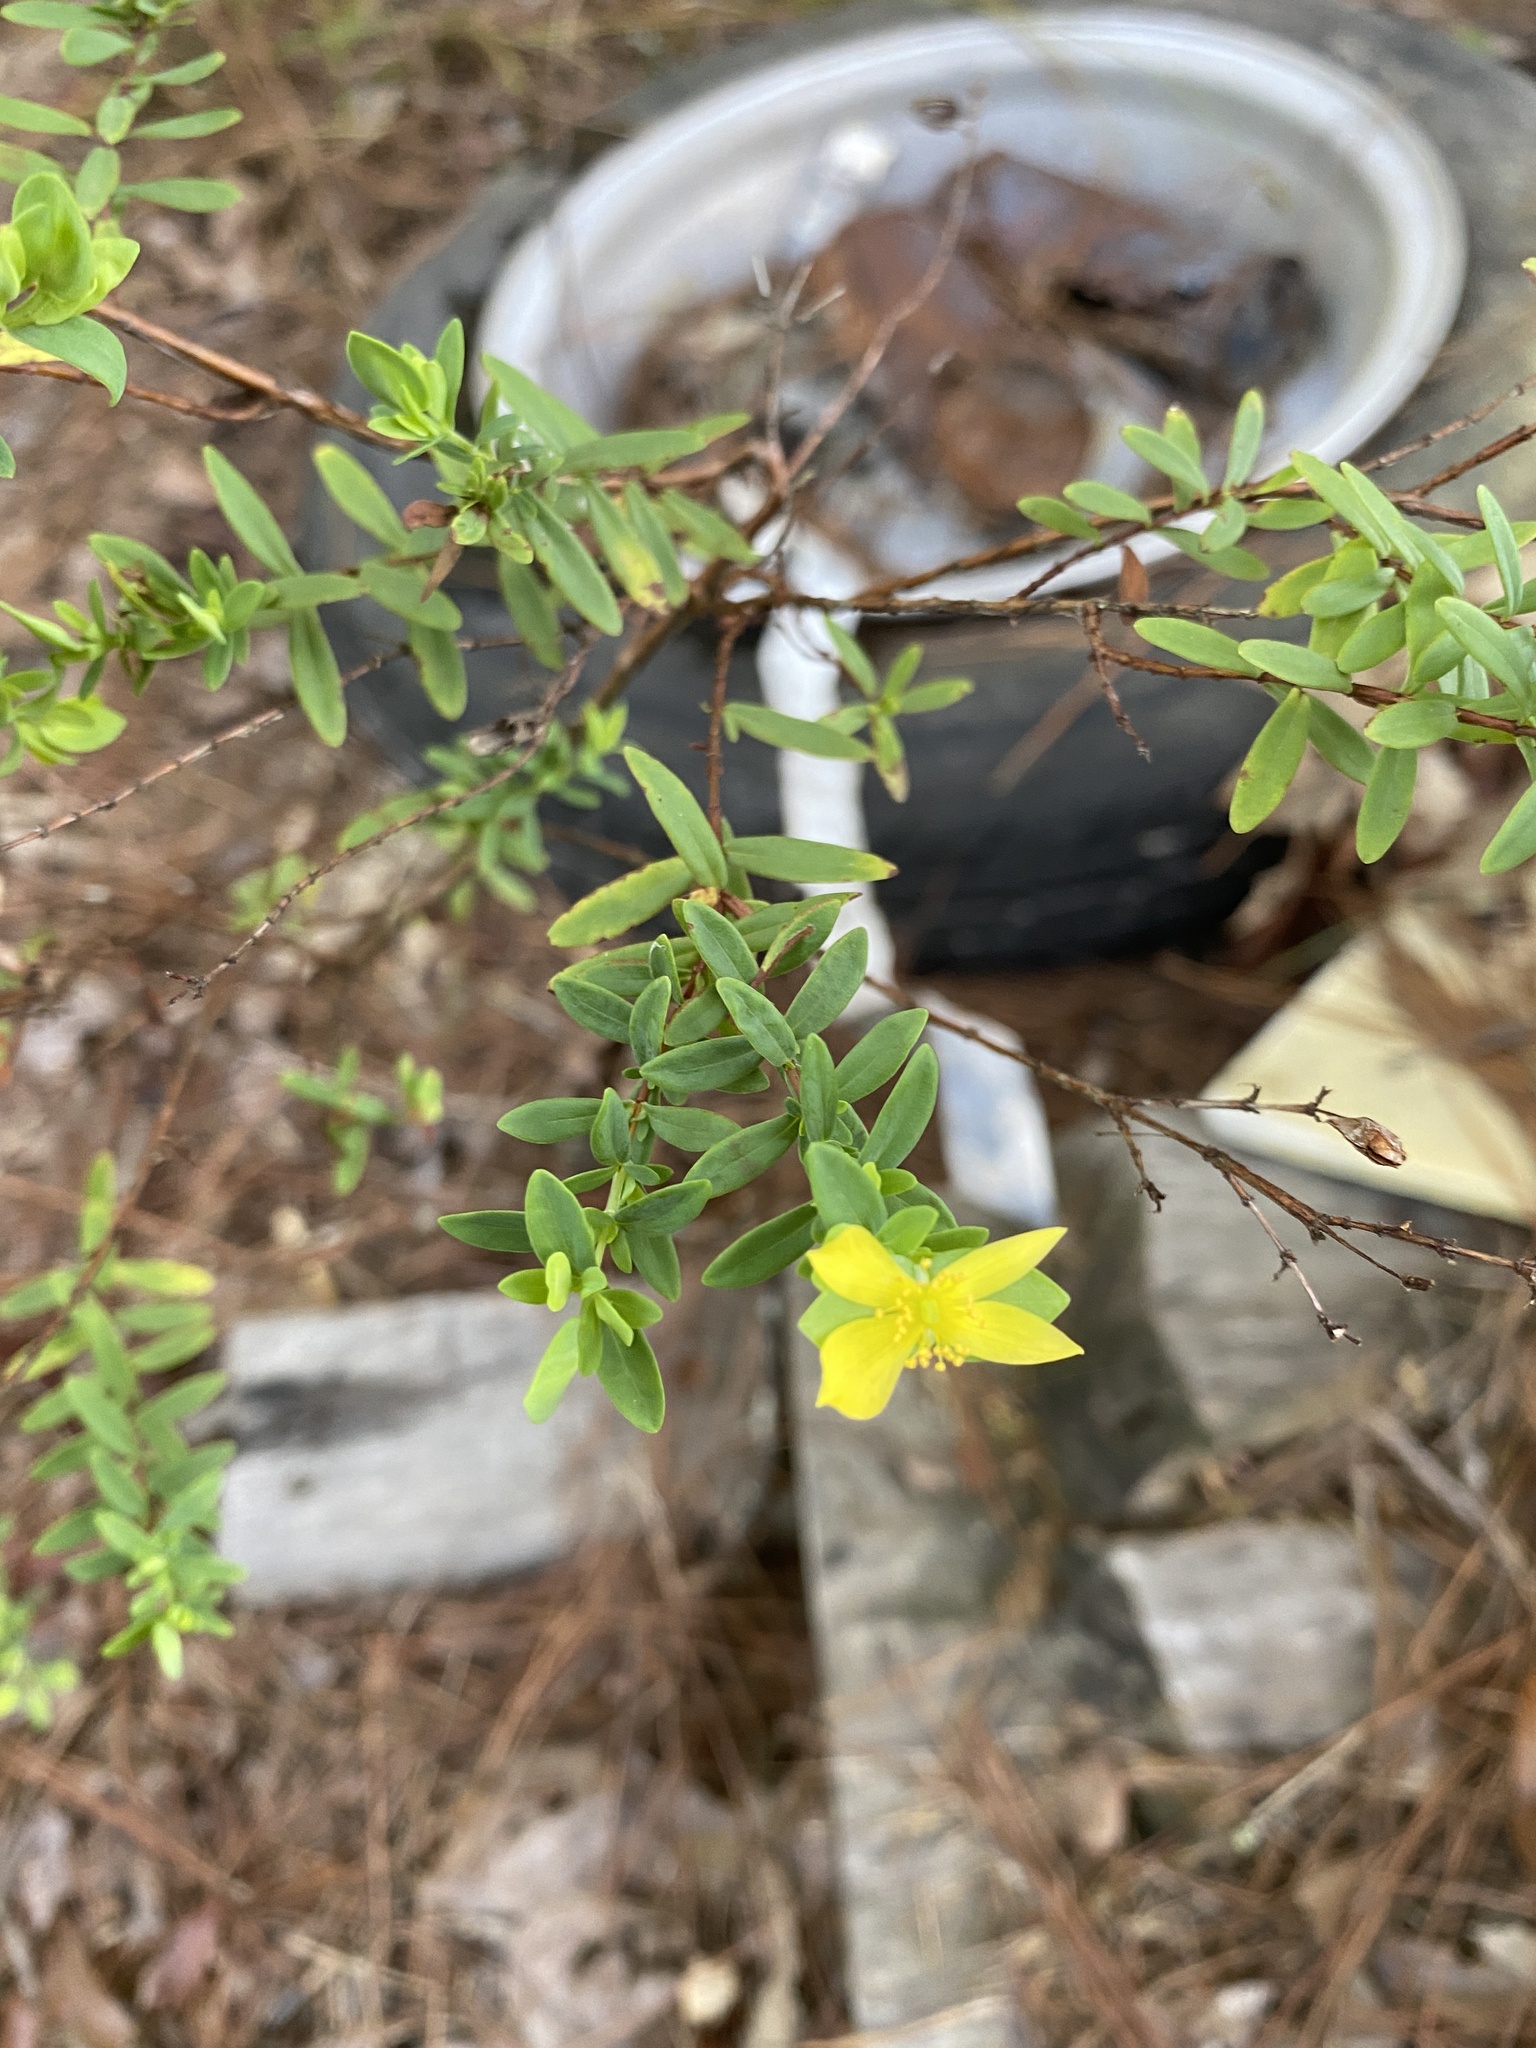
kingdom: Plantae
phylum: Tracheophyta
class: Magnoliopsida
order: Malpighiales
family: Hypericaceae
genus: Hypericum
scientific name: Hypericum hypericoides
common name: St. andrew's cross
